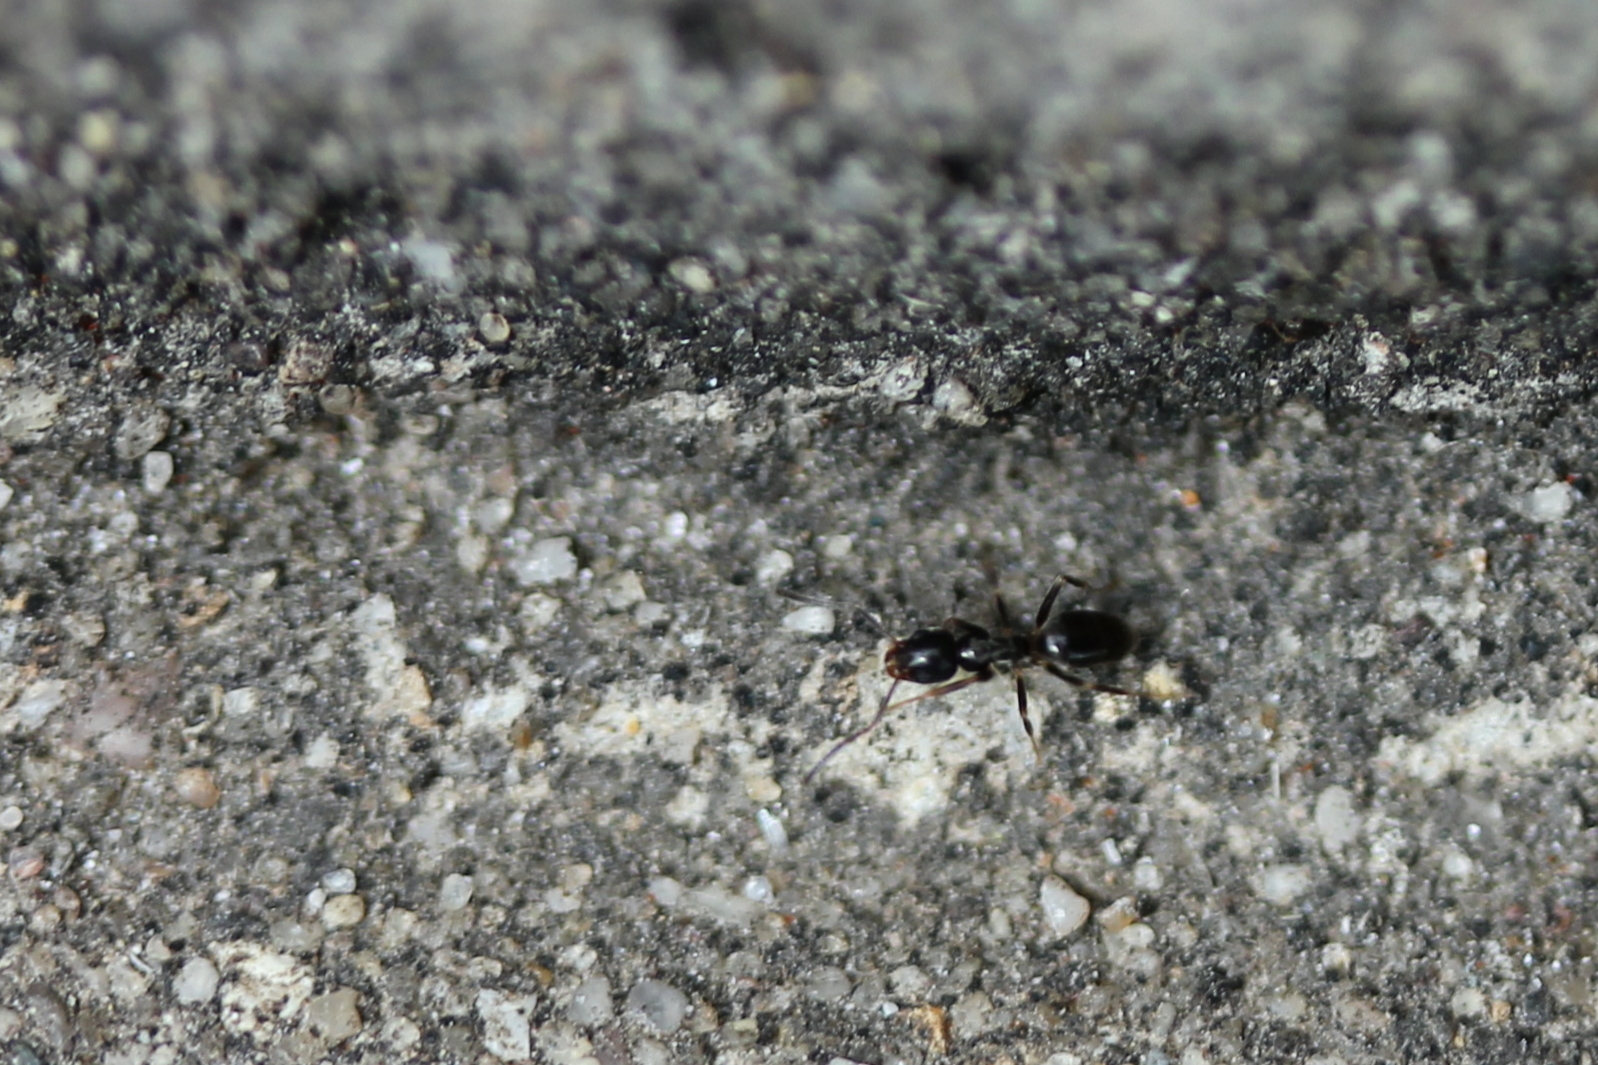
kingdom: Animalia
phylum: Arthropoda
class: Insecta
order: Hymenoptera
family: Formicidae
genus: Tapinoma
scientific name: Tapinoma sessile
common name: Odorous house ant
